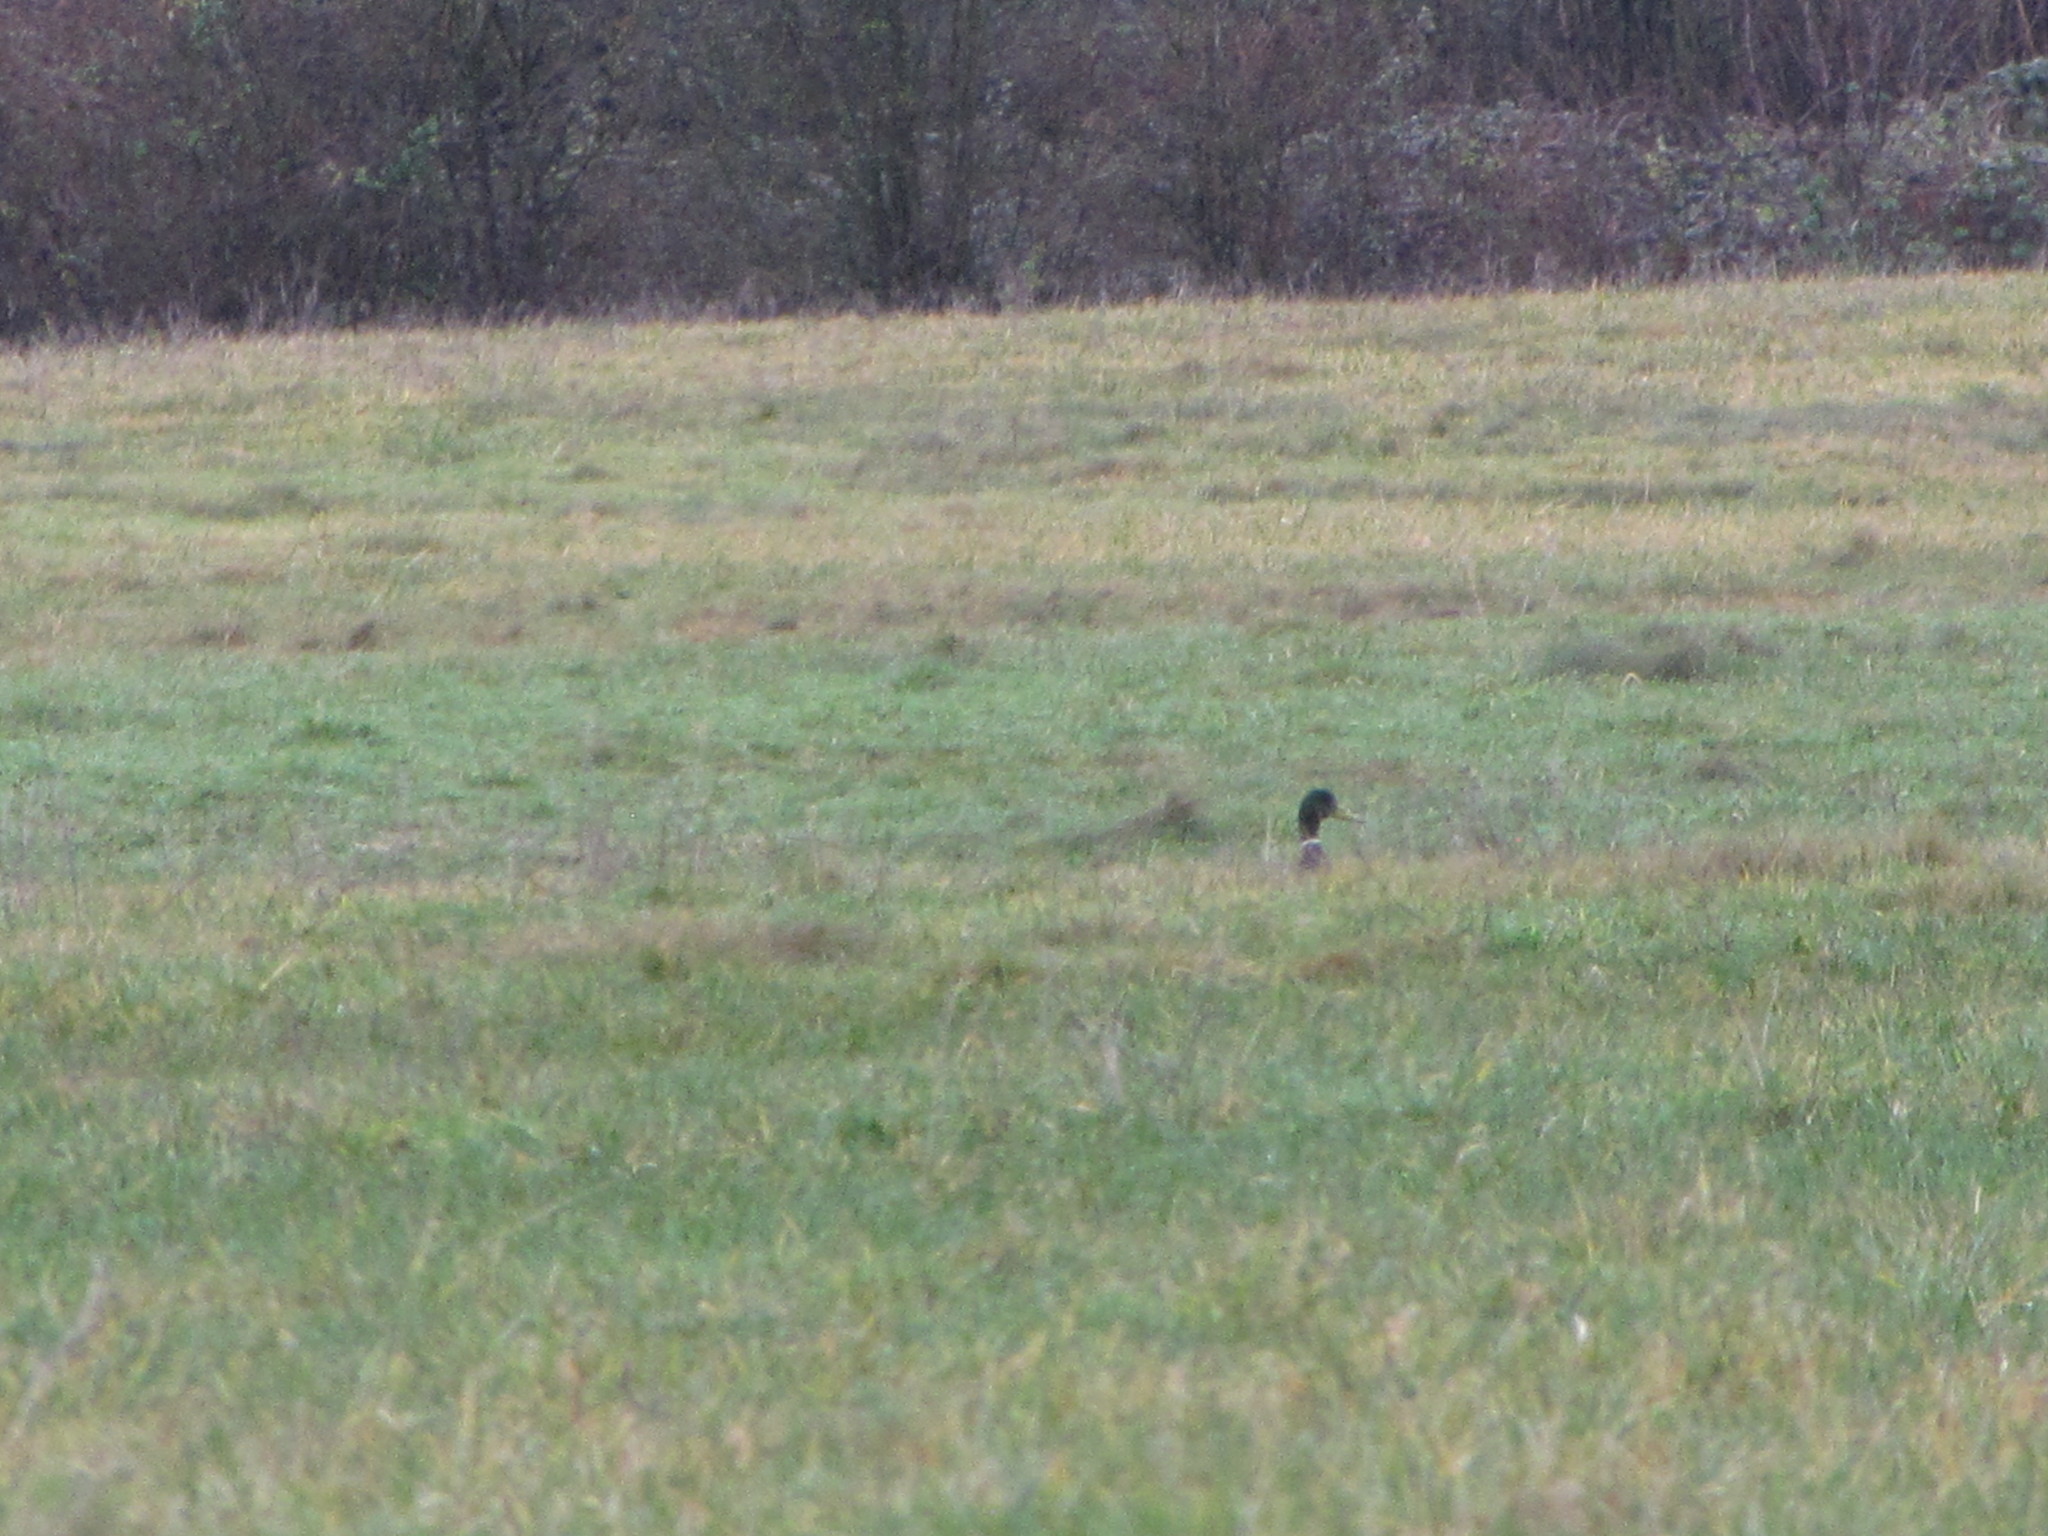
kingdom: Animalia
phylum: Chordata
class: Aves
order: Anseriformes
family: Anatidae
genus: Anas
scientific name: Anas platyrhynchos
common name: Mallard
